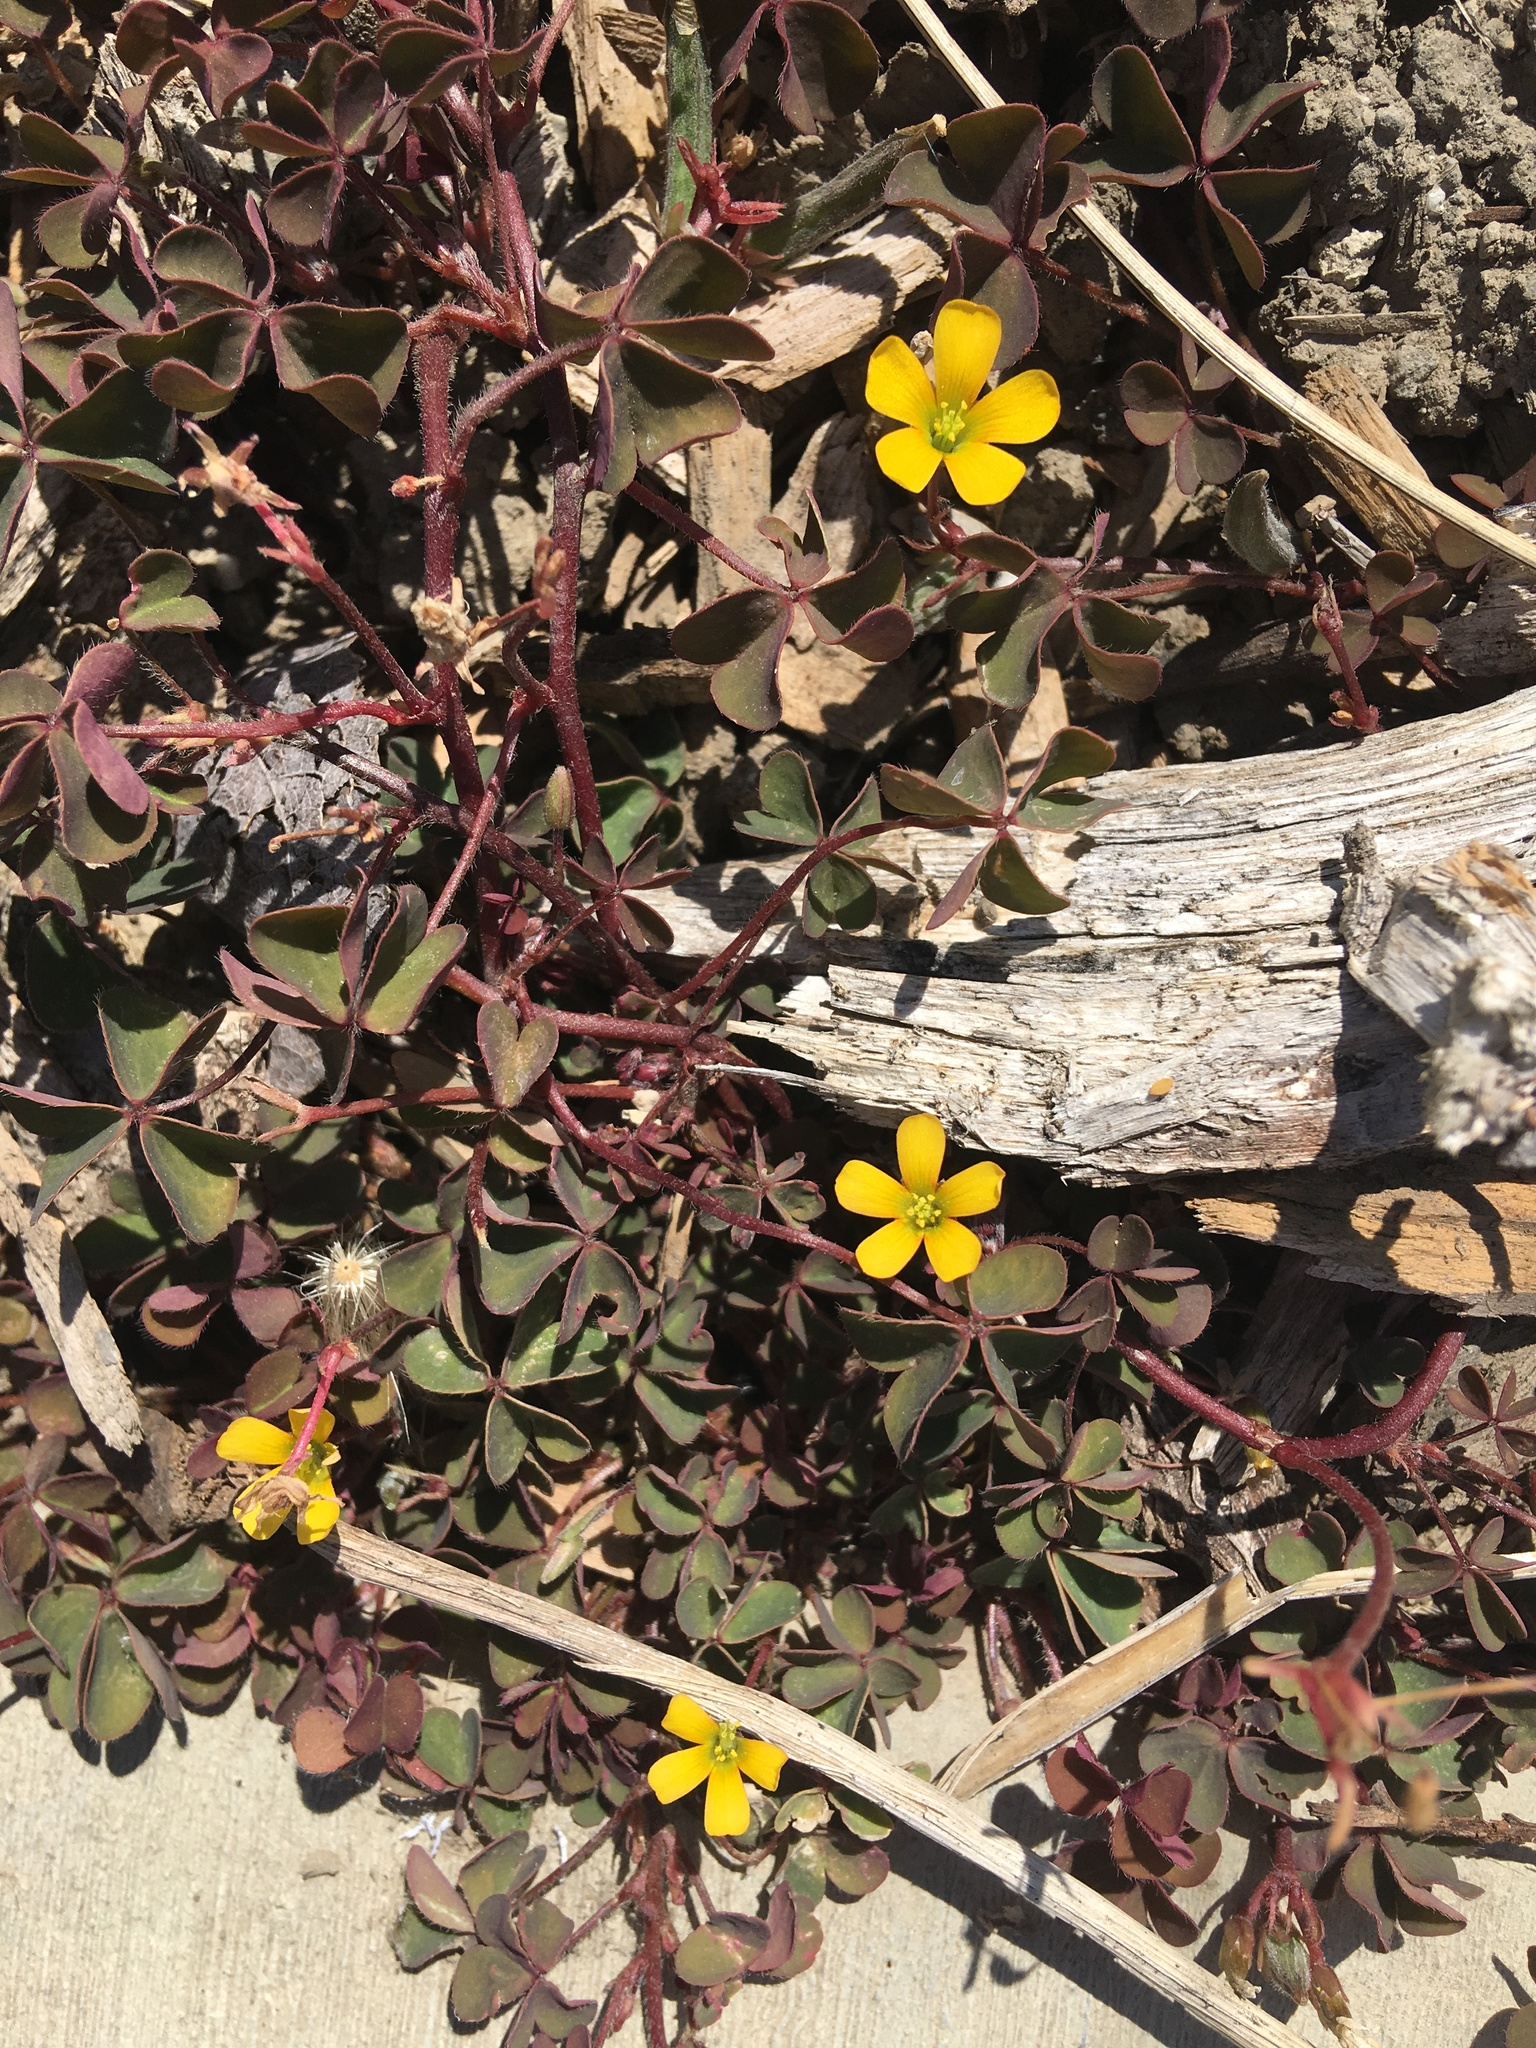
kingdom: Plantae
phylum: Tracheophyta
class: Magnoliopsida
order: Oxalidales
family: Oxalidaceae
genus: Oxalis
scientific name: Oxalis corniculata
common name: Procumbent yellow-sorrel
